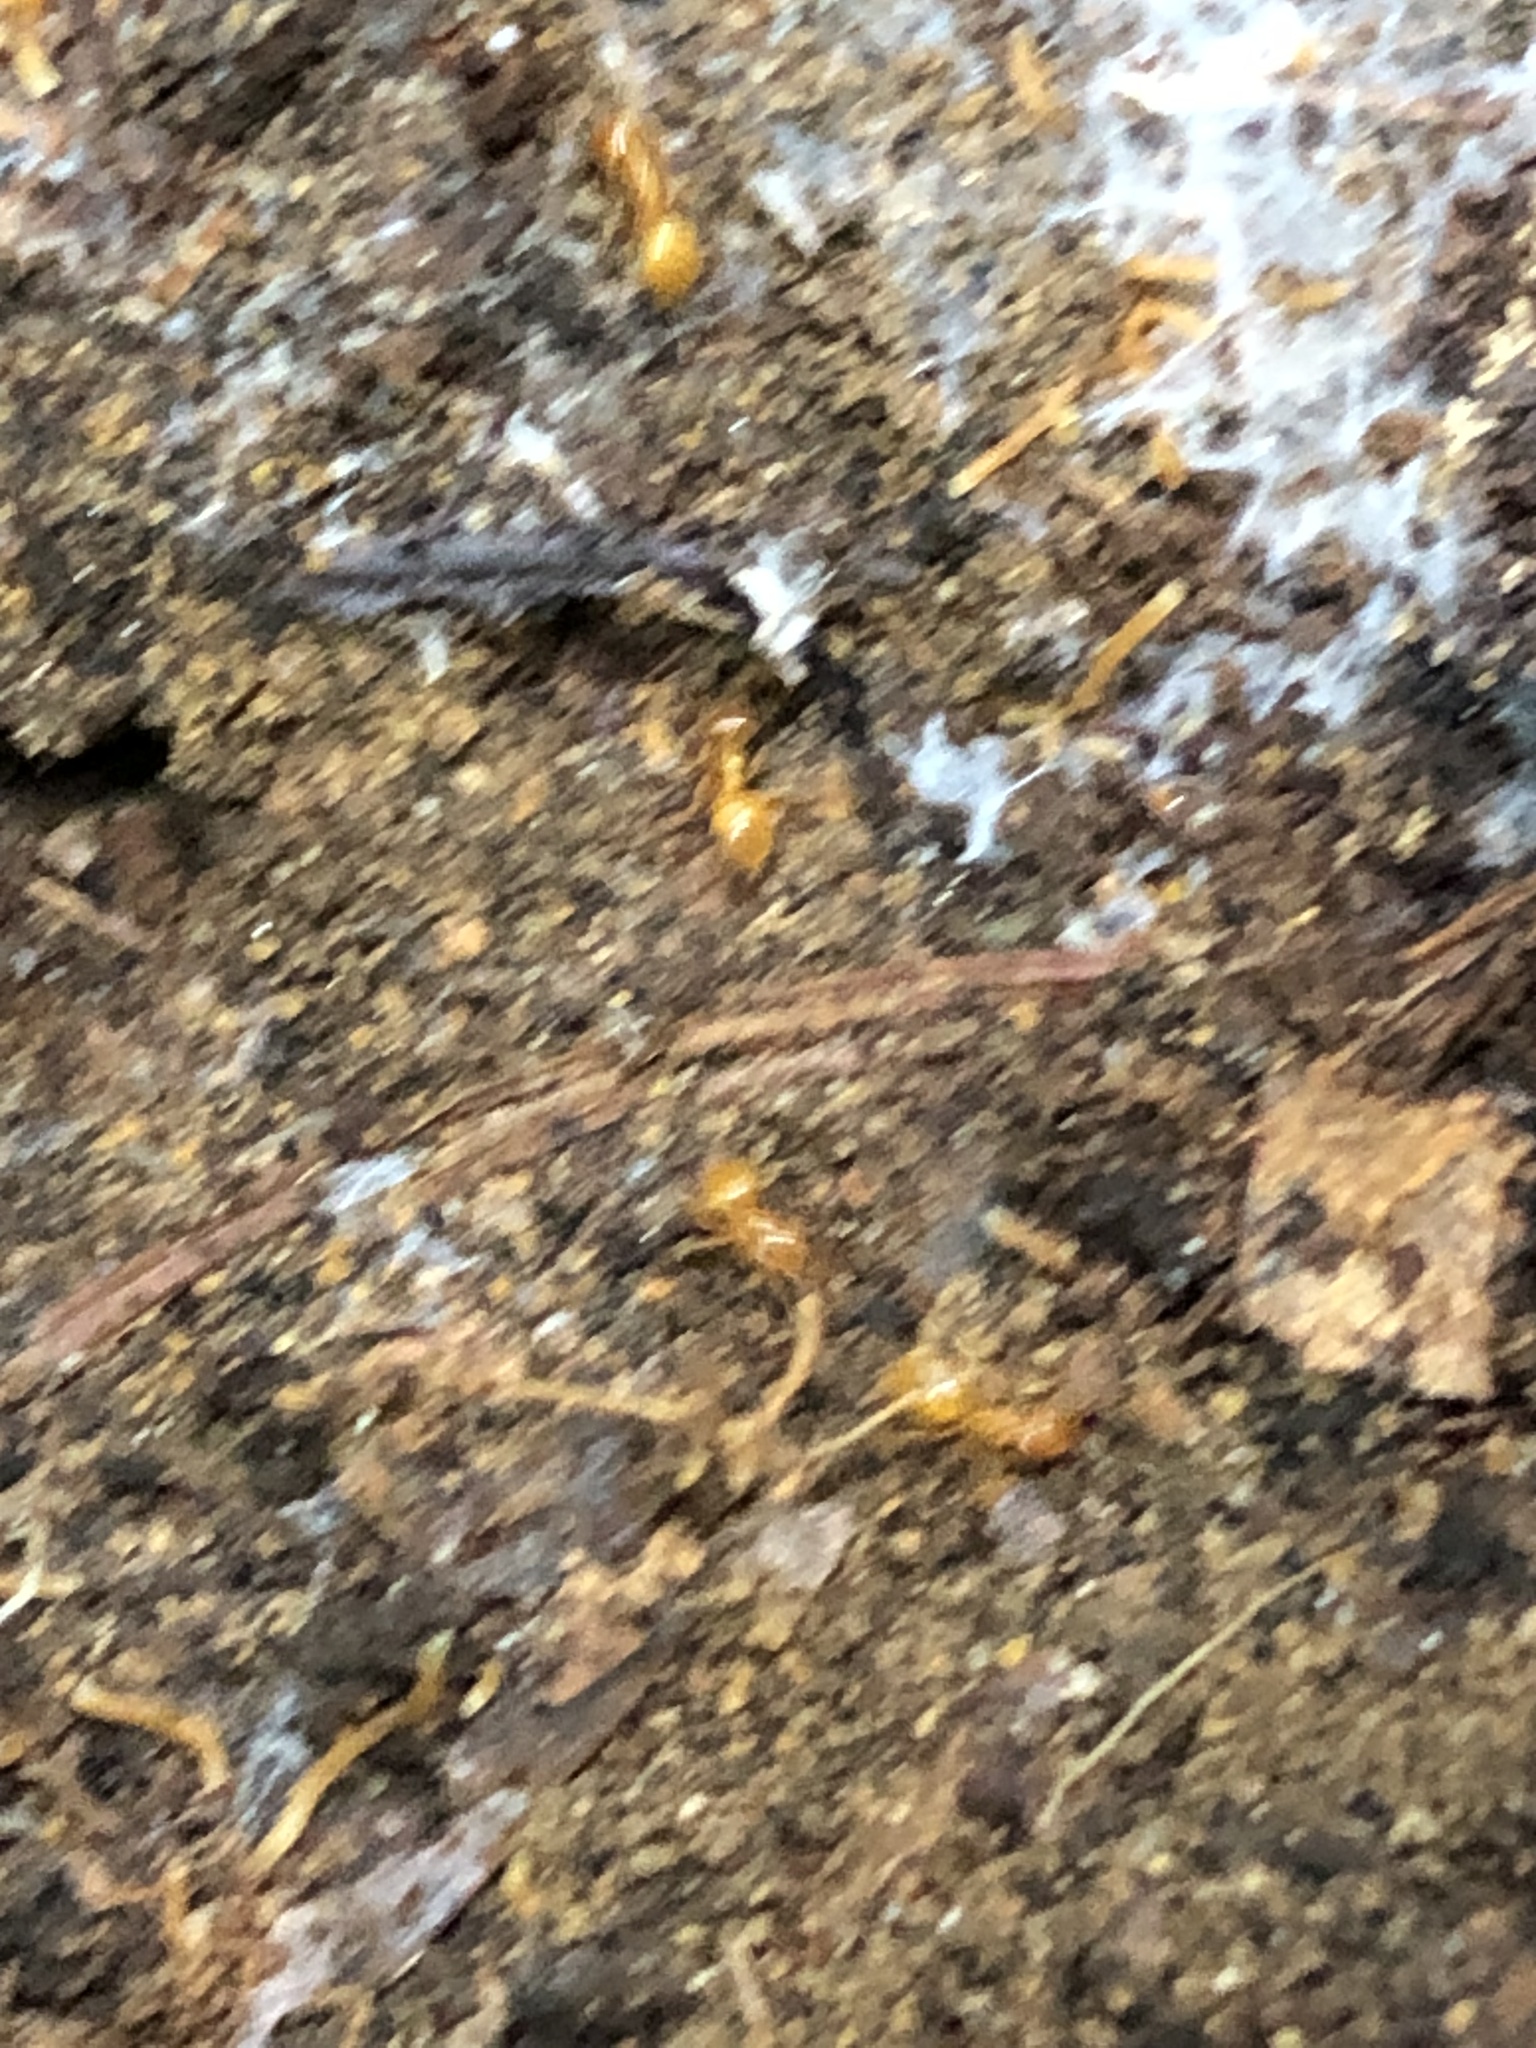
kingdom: Animalia
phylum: Arthropoda
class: Insecta
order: Hymenoptera
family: Formicidae
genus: Acanthomyops
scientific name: Acanthomyops
